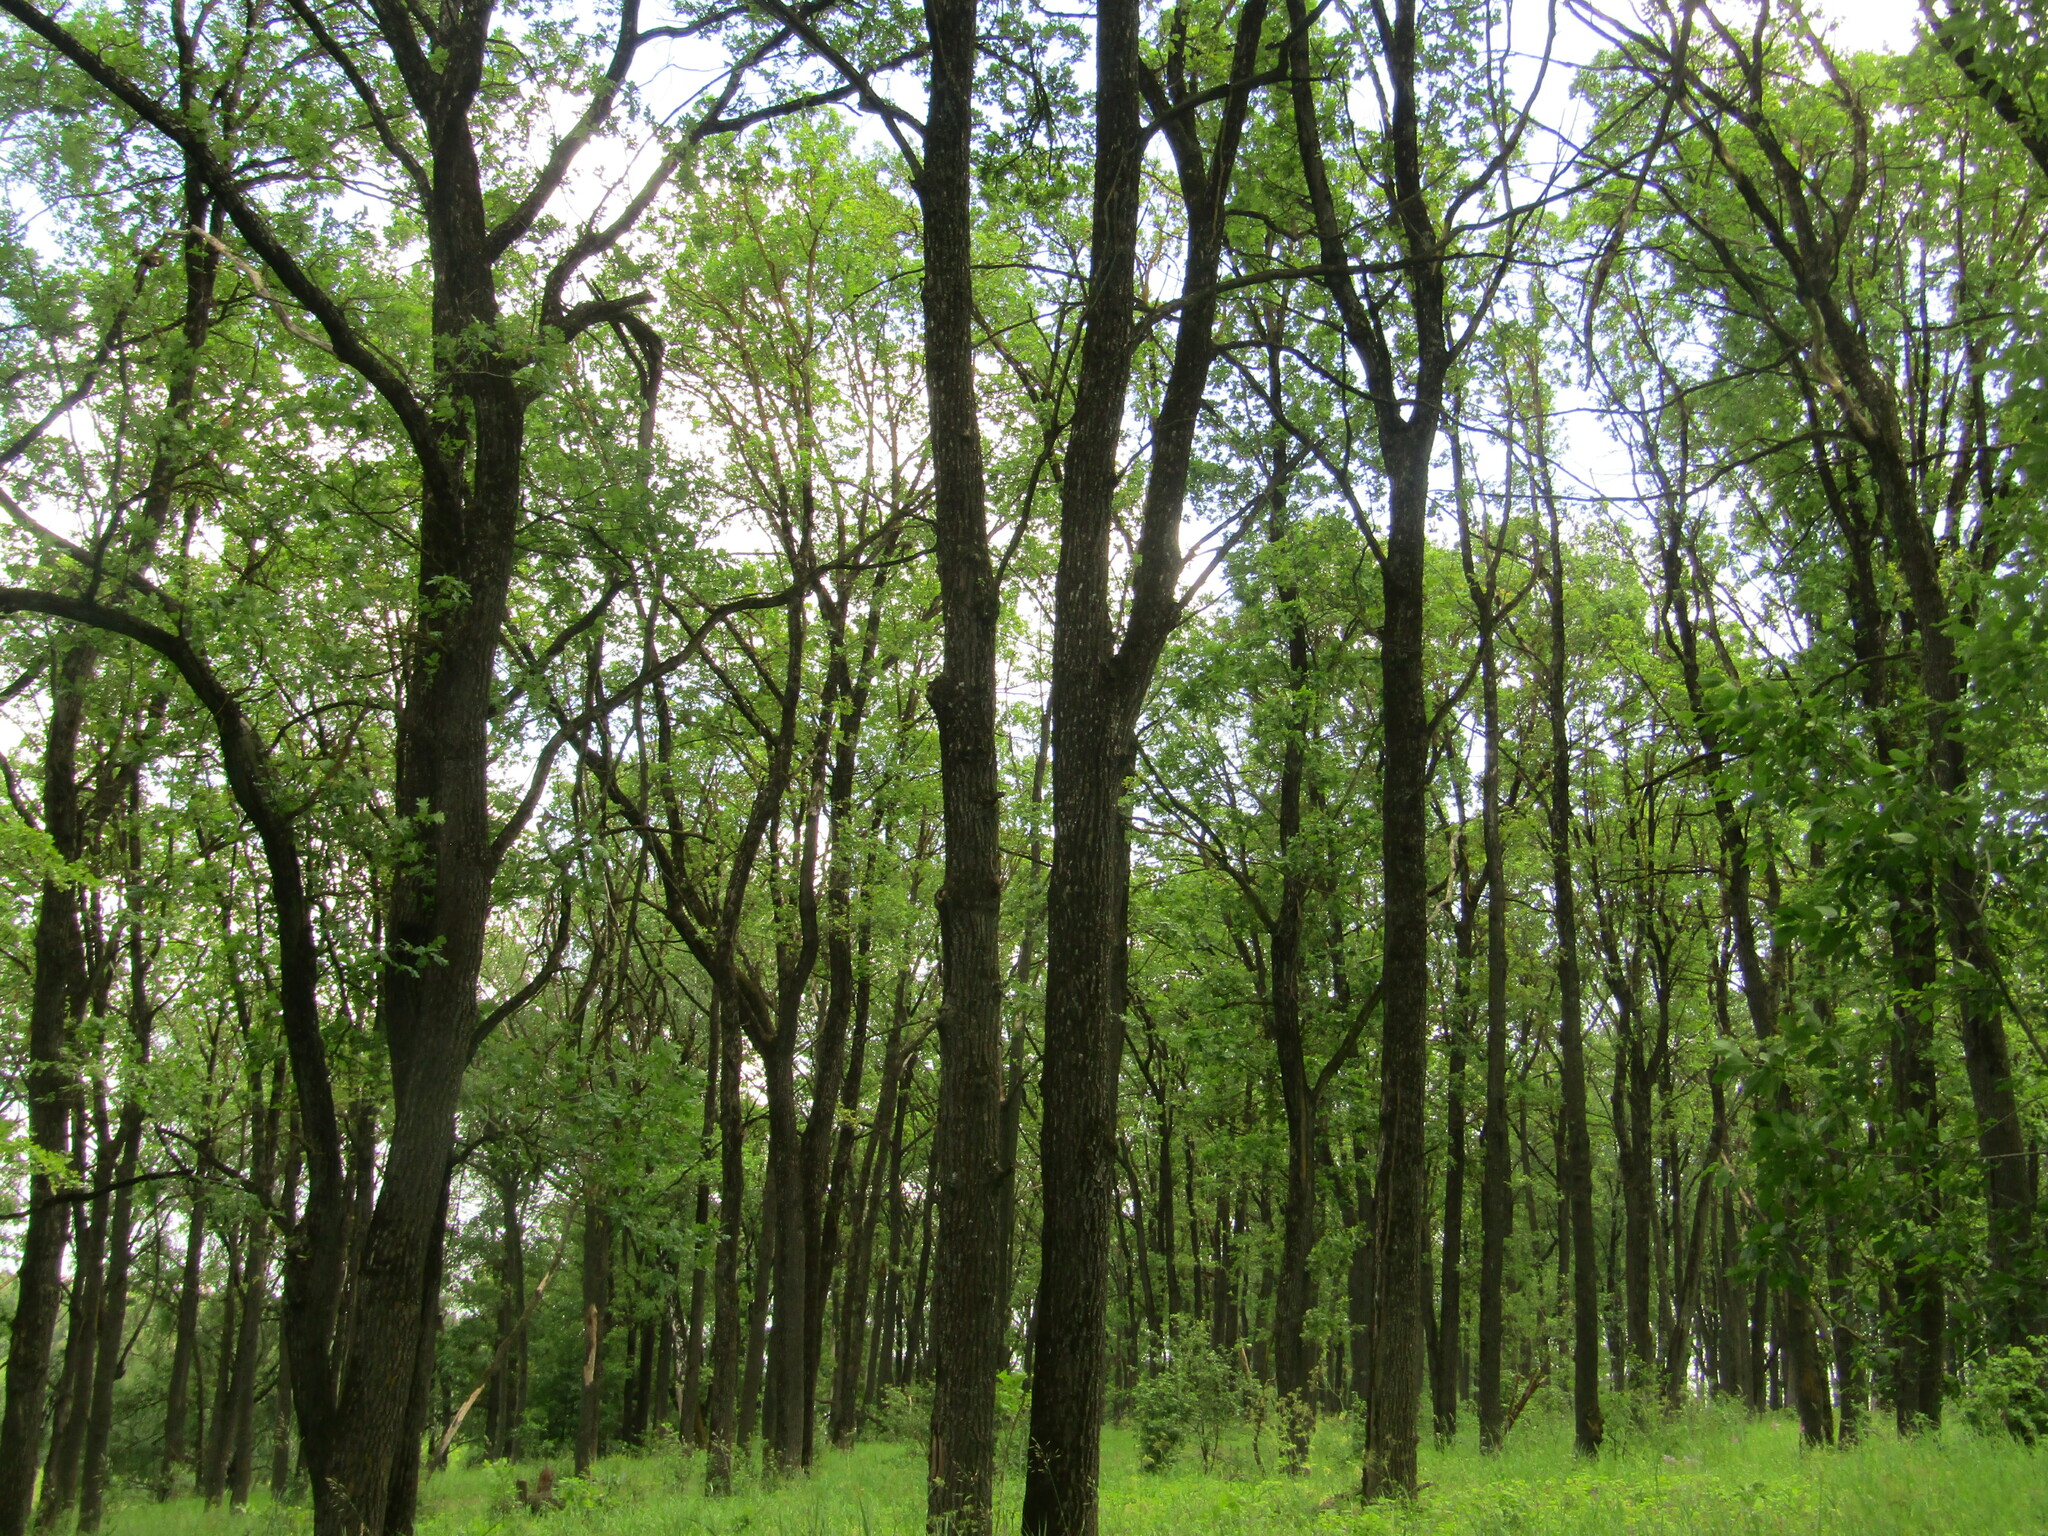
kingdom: Plantae
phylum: Tracheophyta
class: Magnoliopsida
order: Fagales
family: Fagaceae
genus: Quercus
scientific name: Quercus robur
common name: Pedunculate oak
